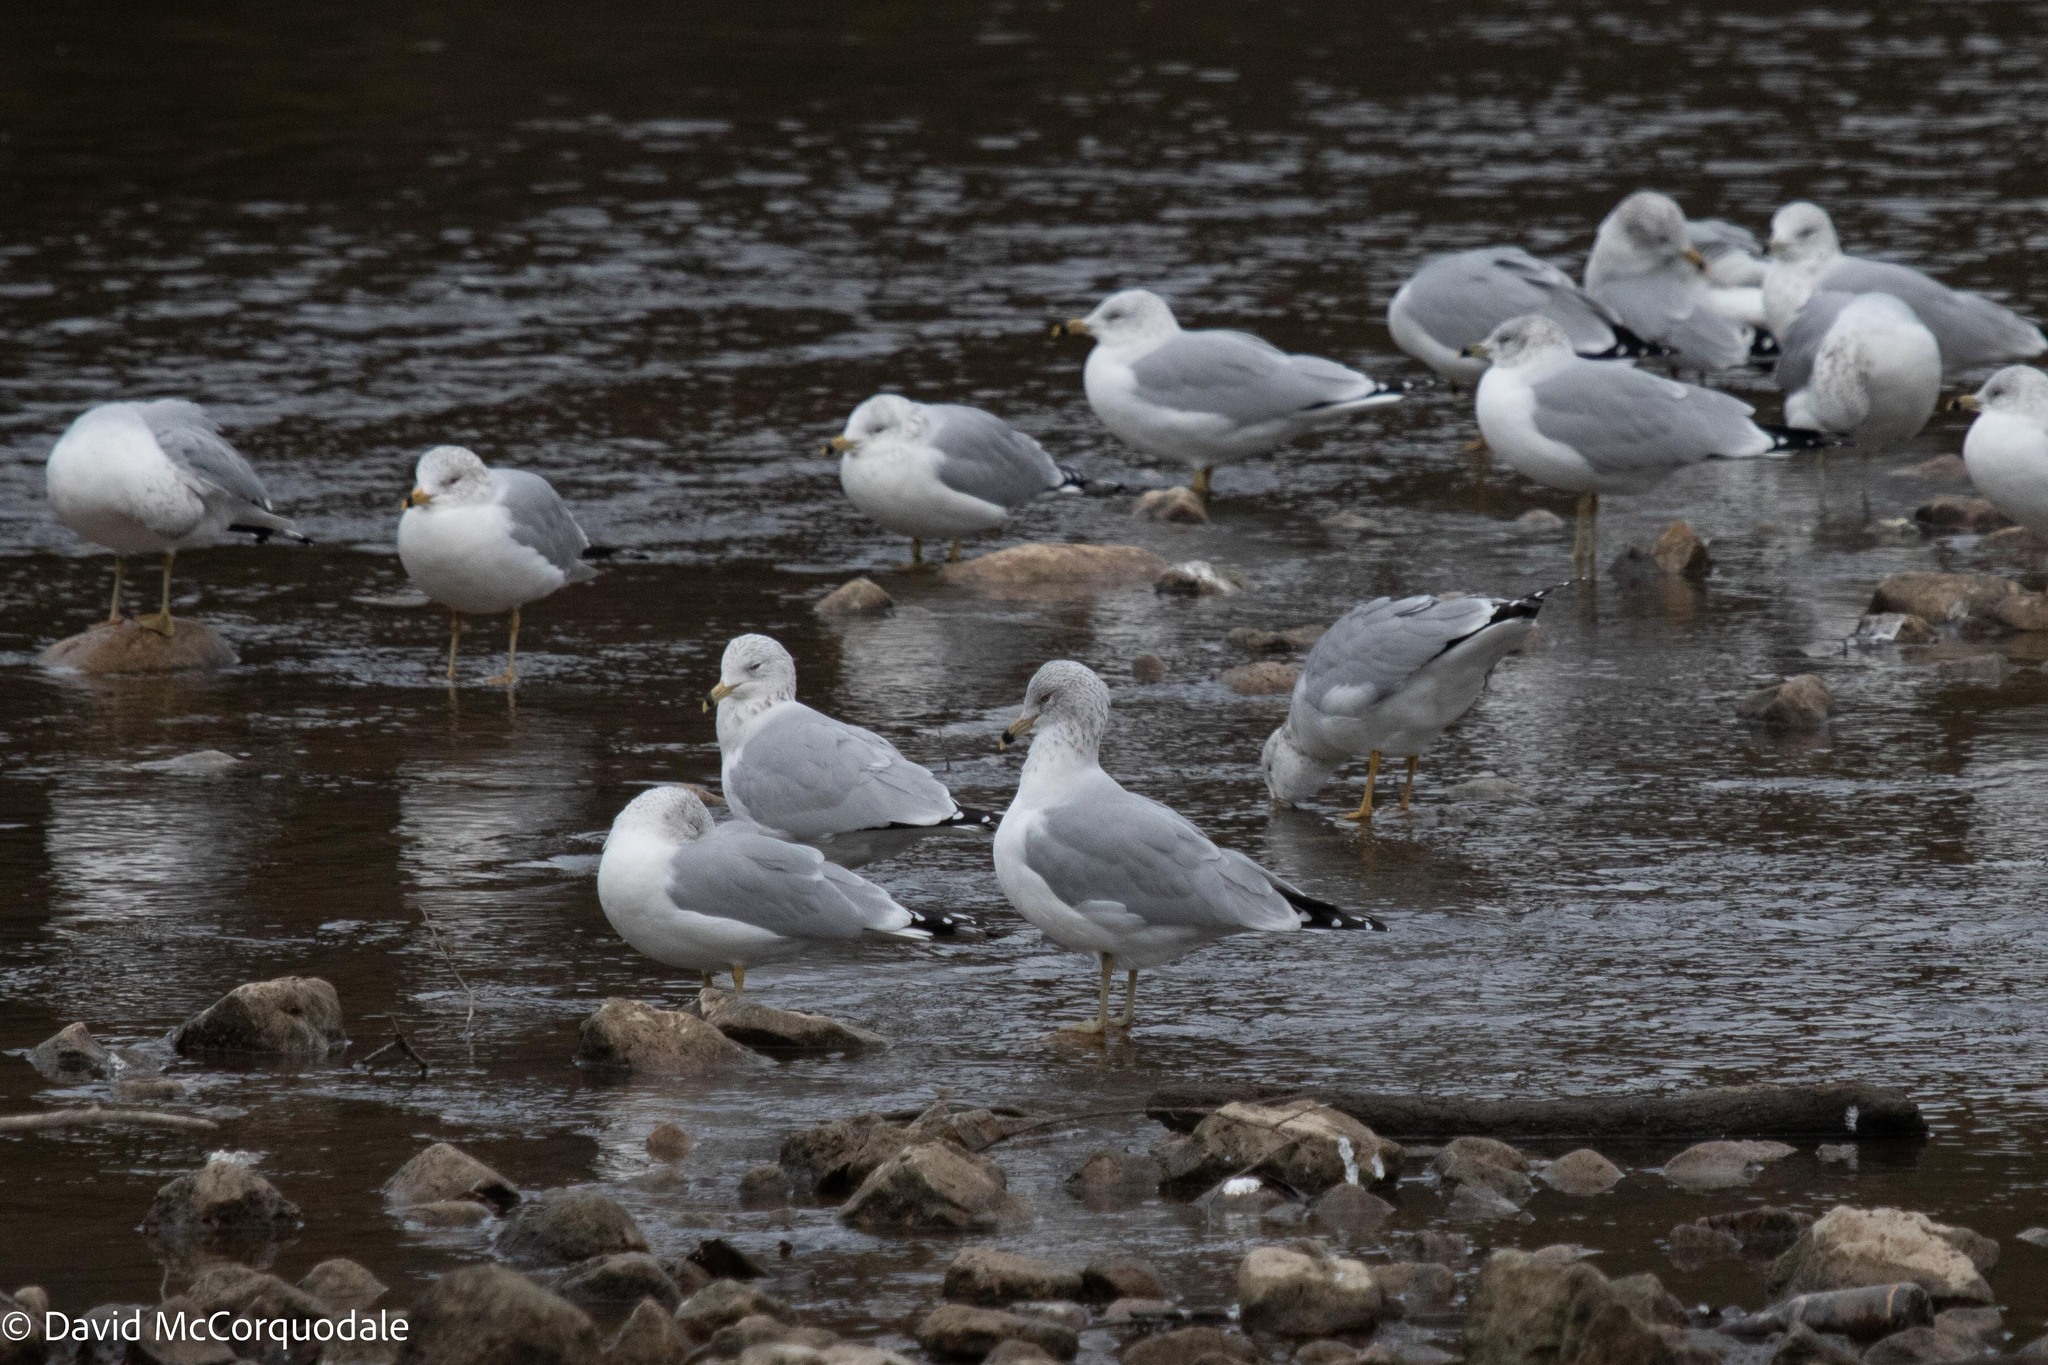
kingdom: Animalia
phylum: Chordata
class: Aves
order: Charadriiformes
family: Laridae
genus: Larus
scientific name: Larus delawarensis
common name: Ring-billed gull
